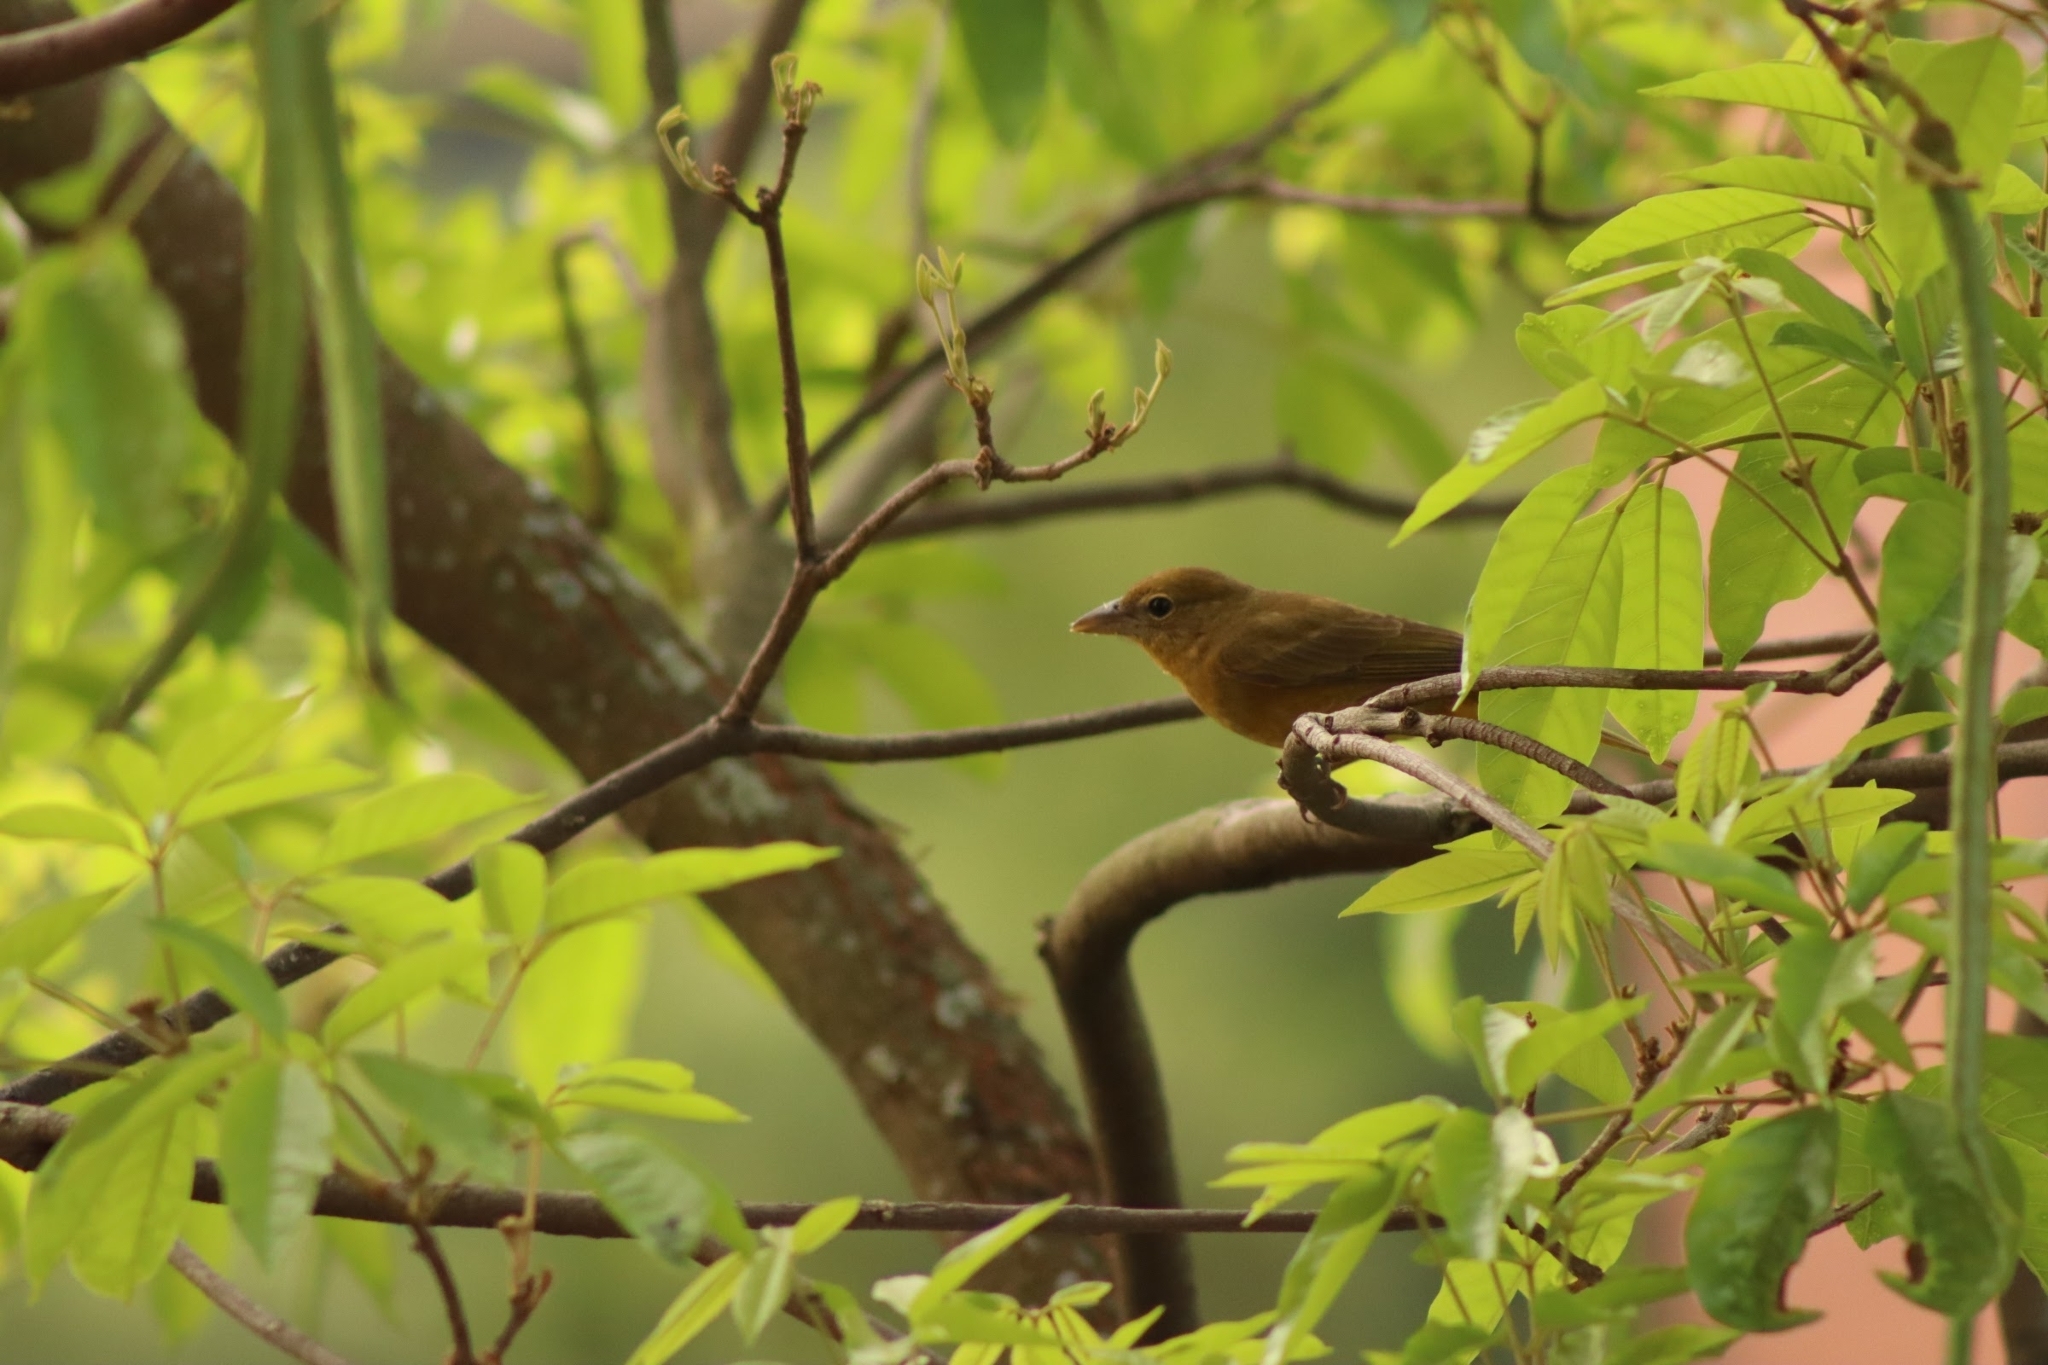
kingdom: Animalia
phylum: Chordata
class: Aves
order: Passeriformes
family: Cardinalidae
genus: Piranga
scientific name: Piranga rubra
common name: Summer tanager
